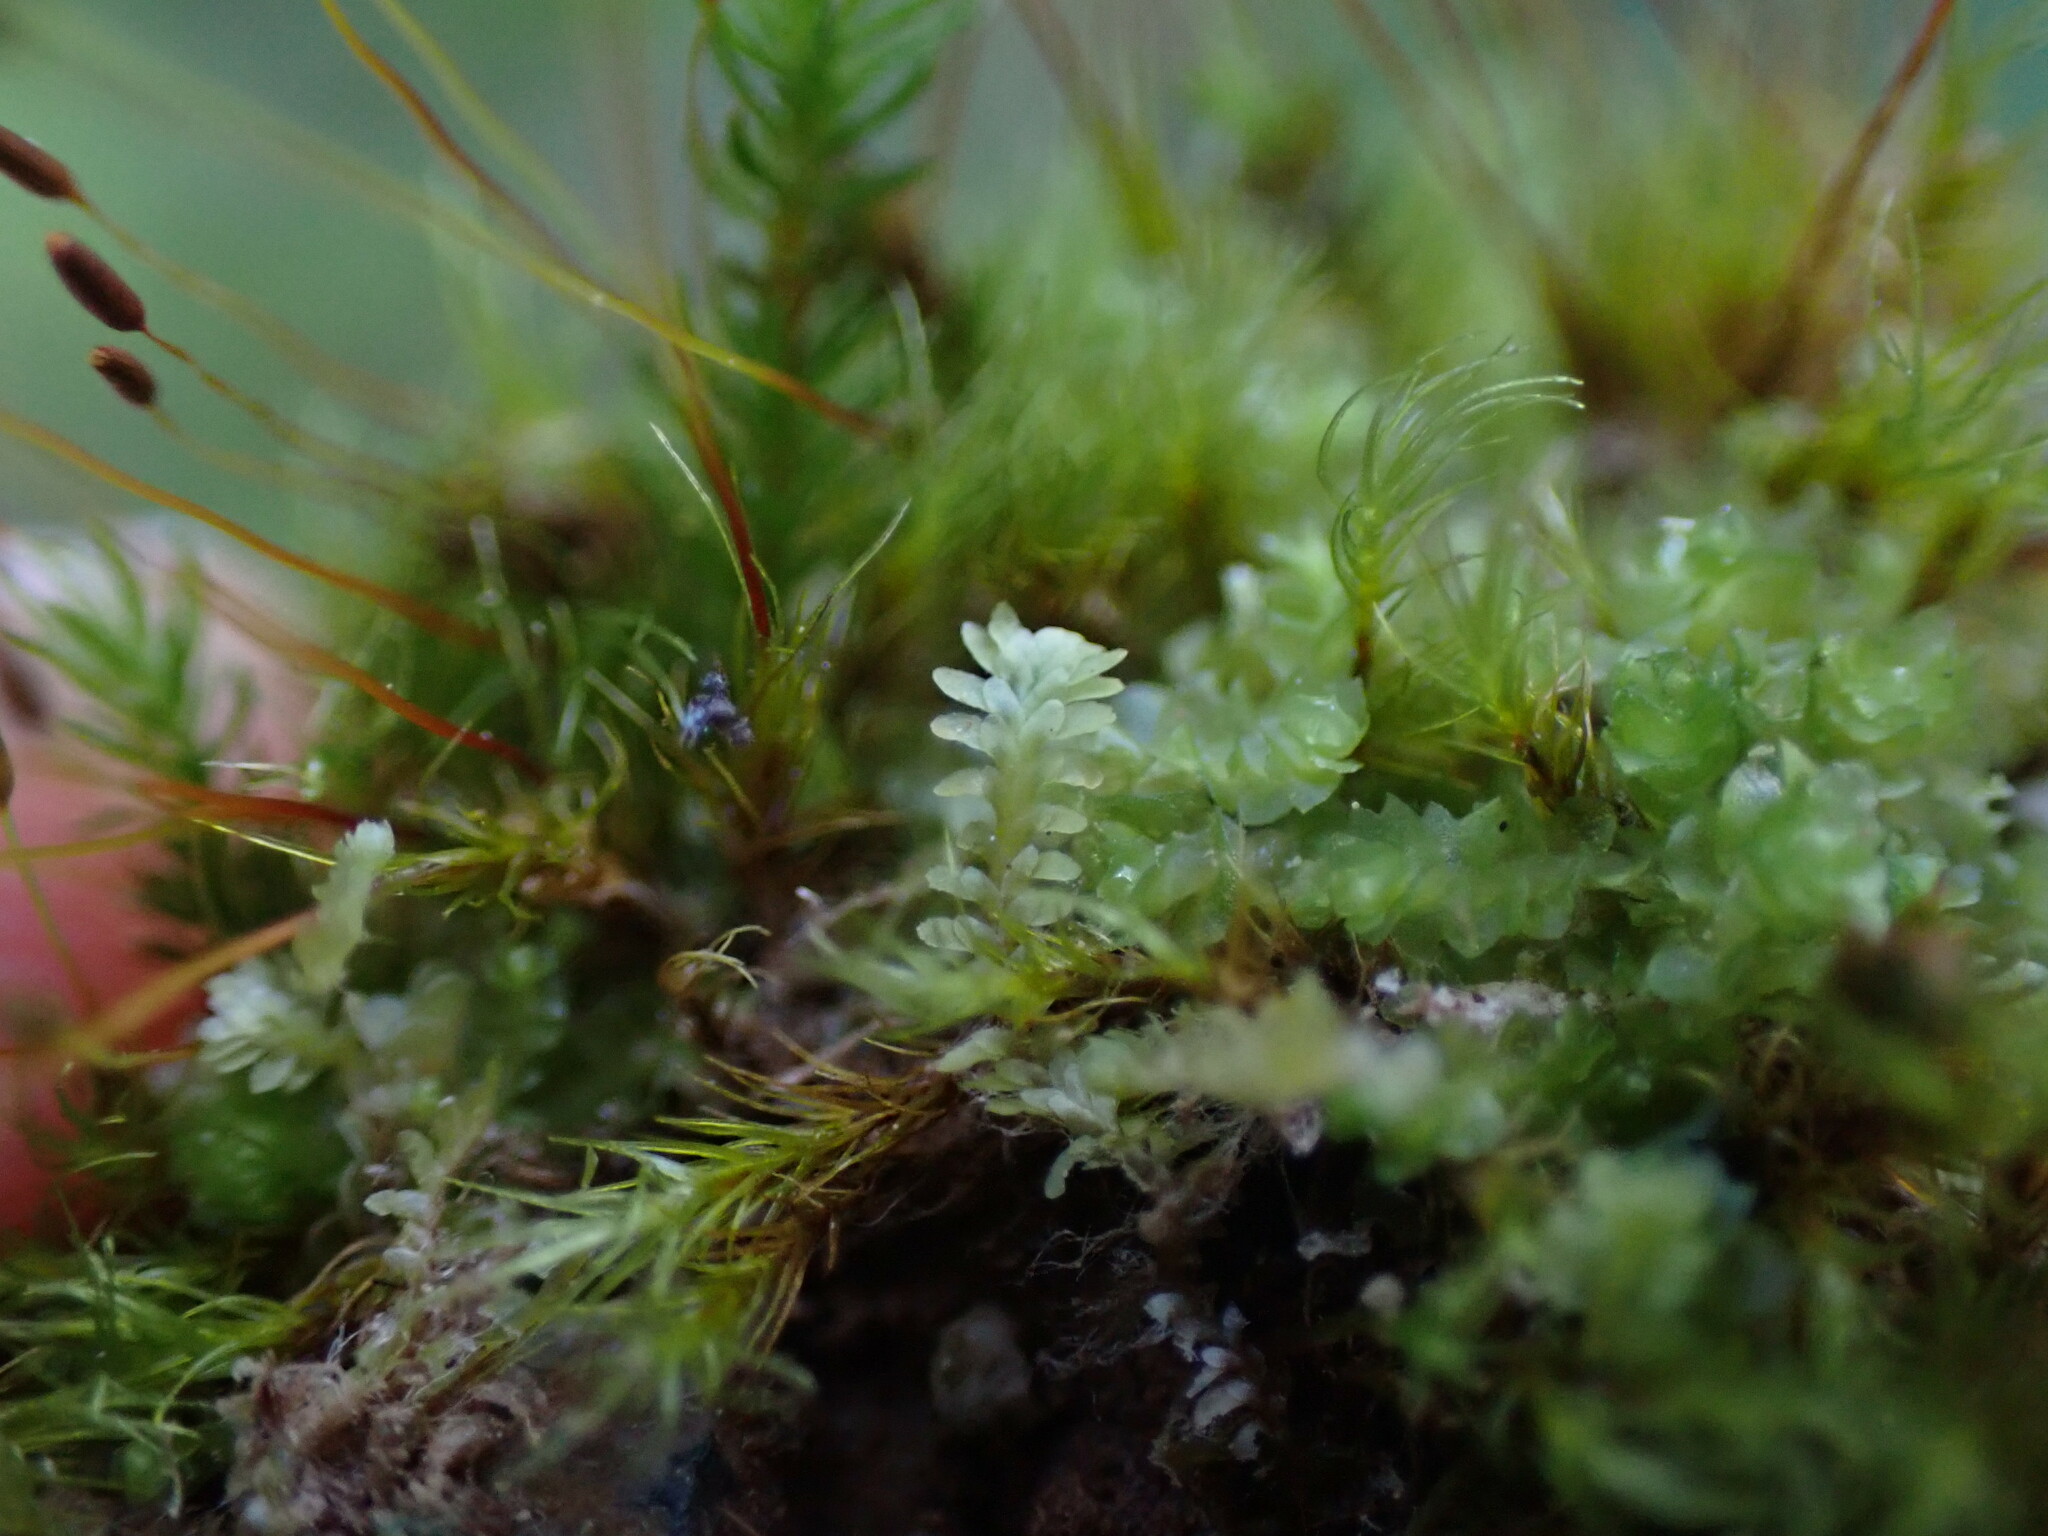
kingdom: Plantae
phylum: Marchantiophyta
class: Jungermanniopsida
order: Jungermanniales
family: Scapaniaceae
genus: Diplophyllum
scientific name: Diplophyllum taxifolium
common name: Alpine earwort
